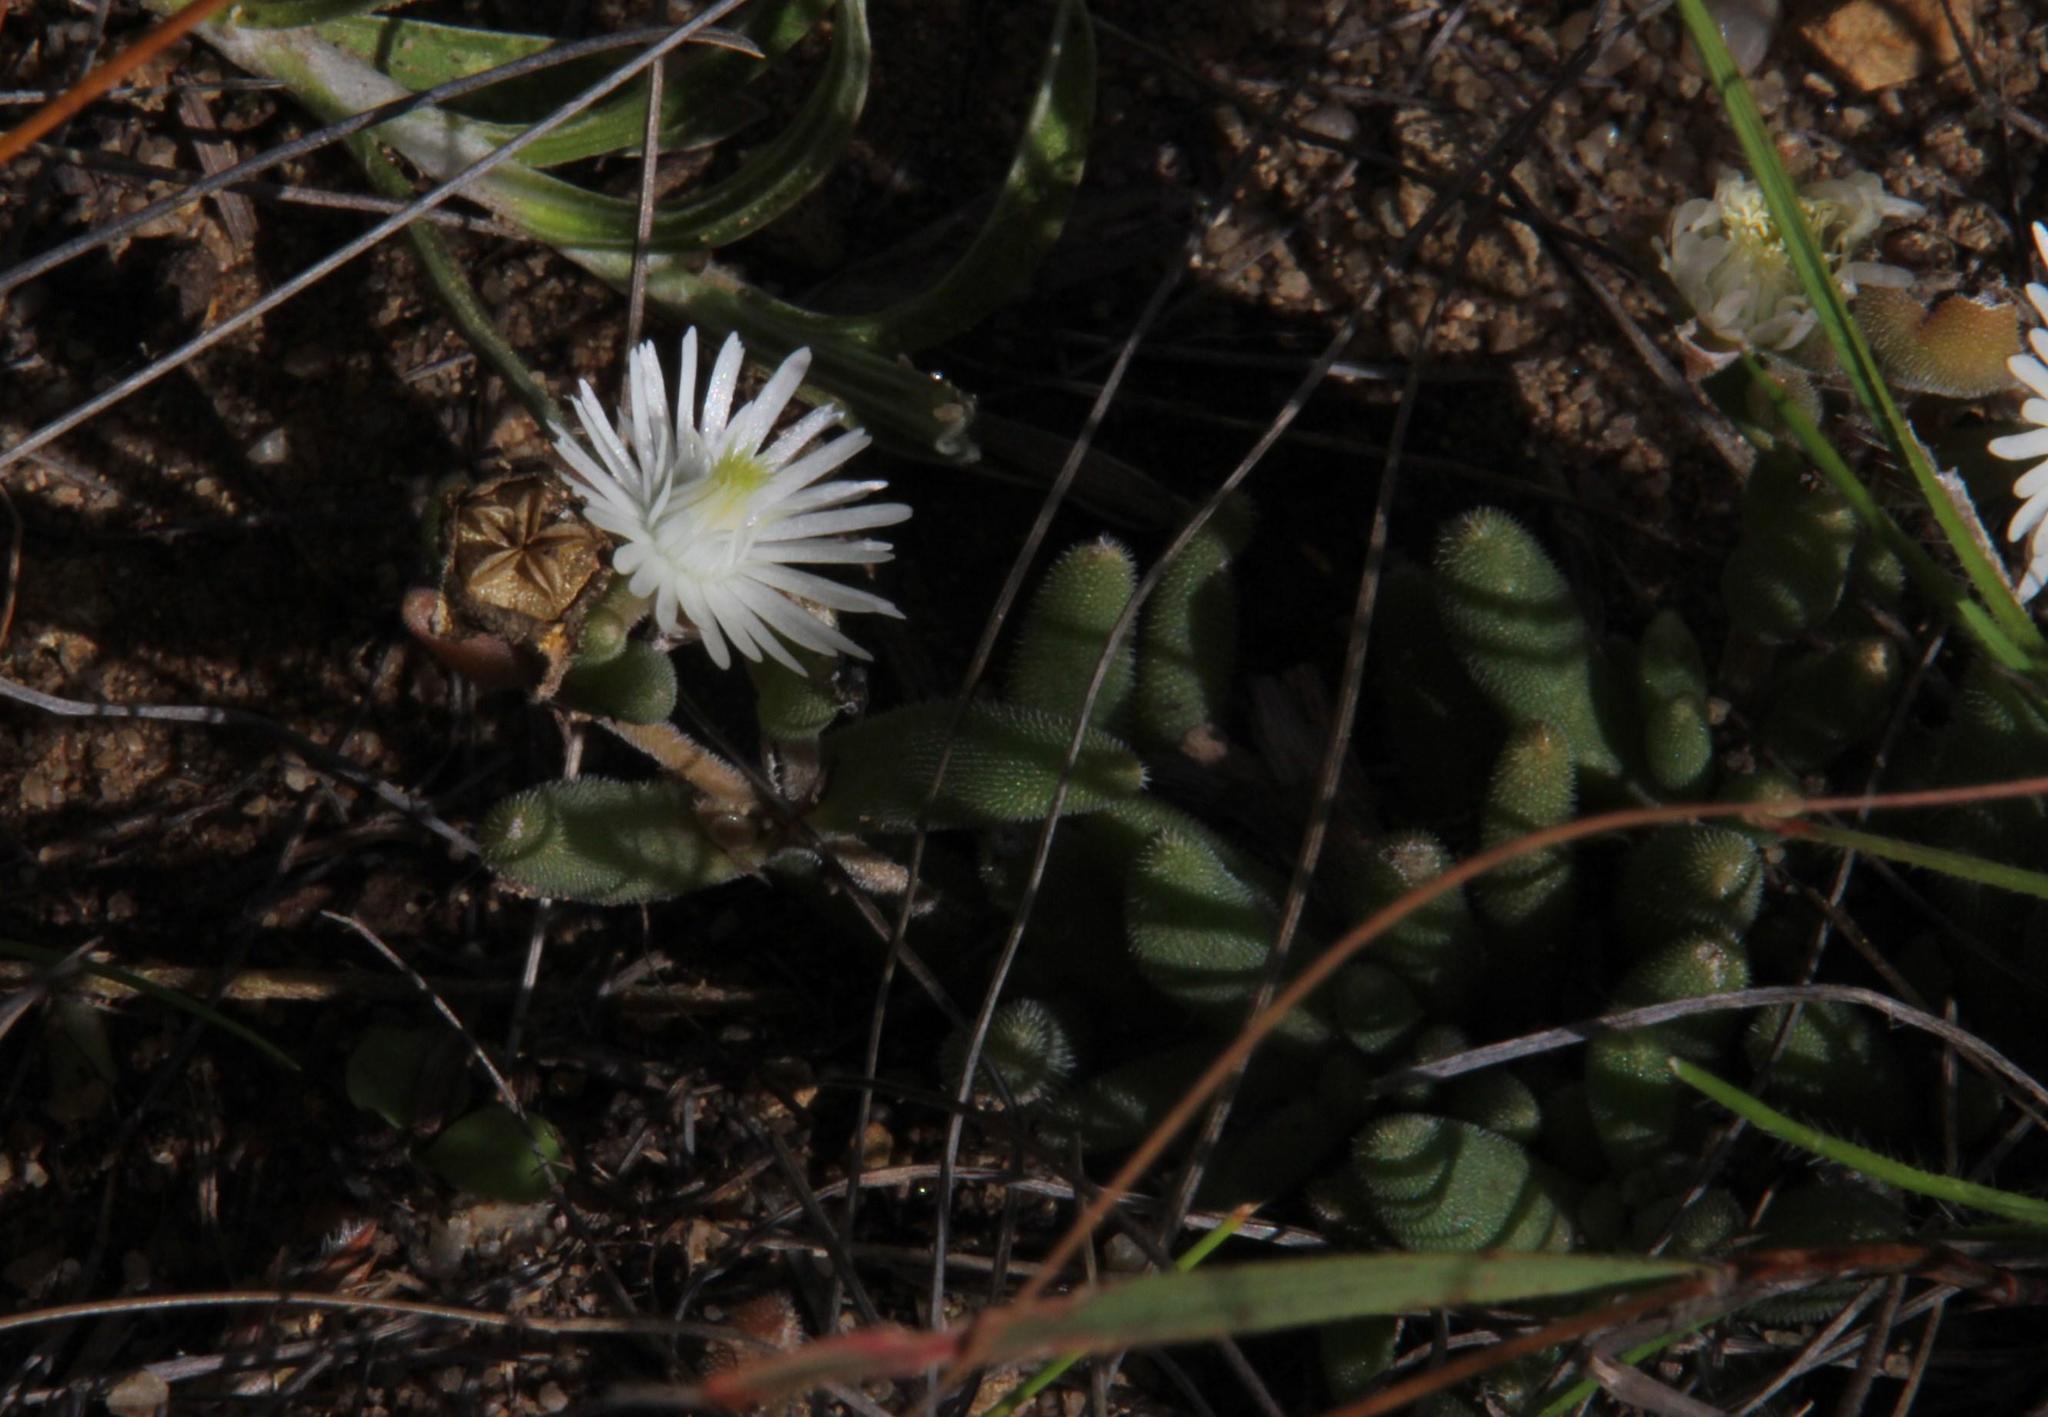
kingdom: Plantae
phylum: Tracheophyta
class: Magnoliopsida
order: Caryophyllales
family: Aizoaceae
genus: Delosperma
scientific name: Delosperma lootsbergense
